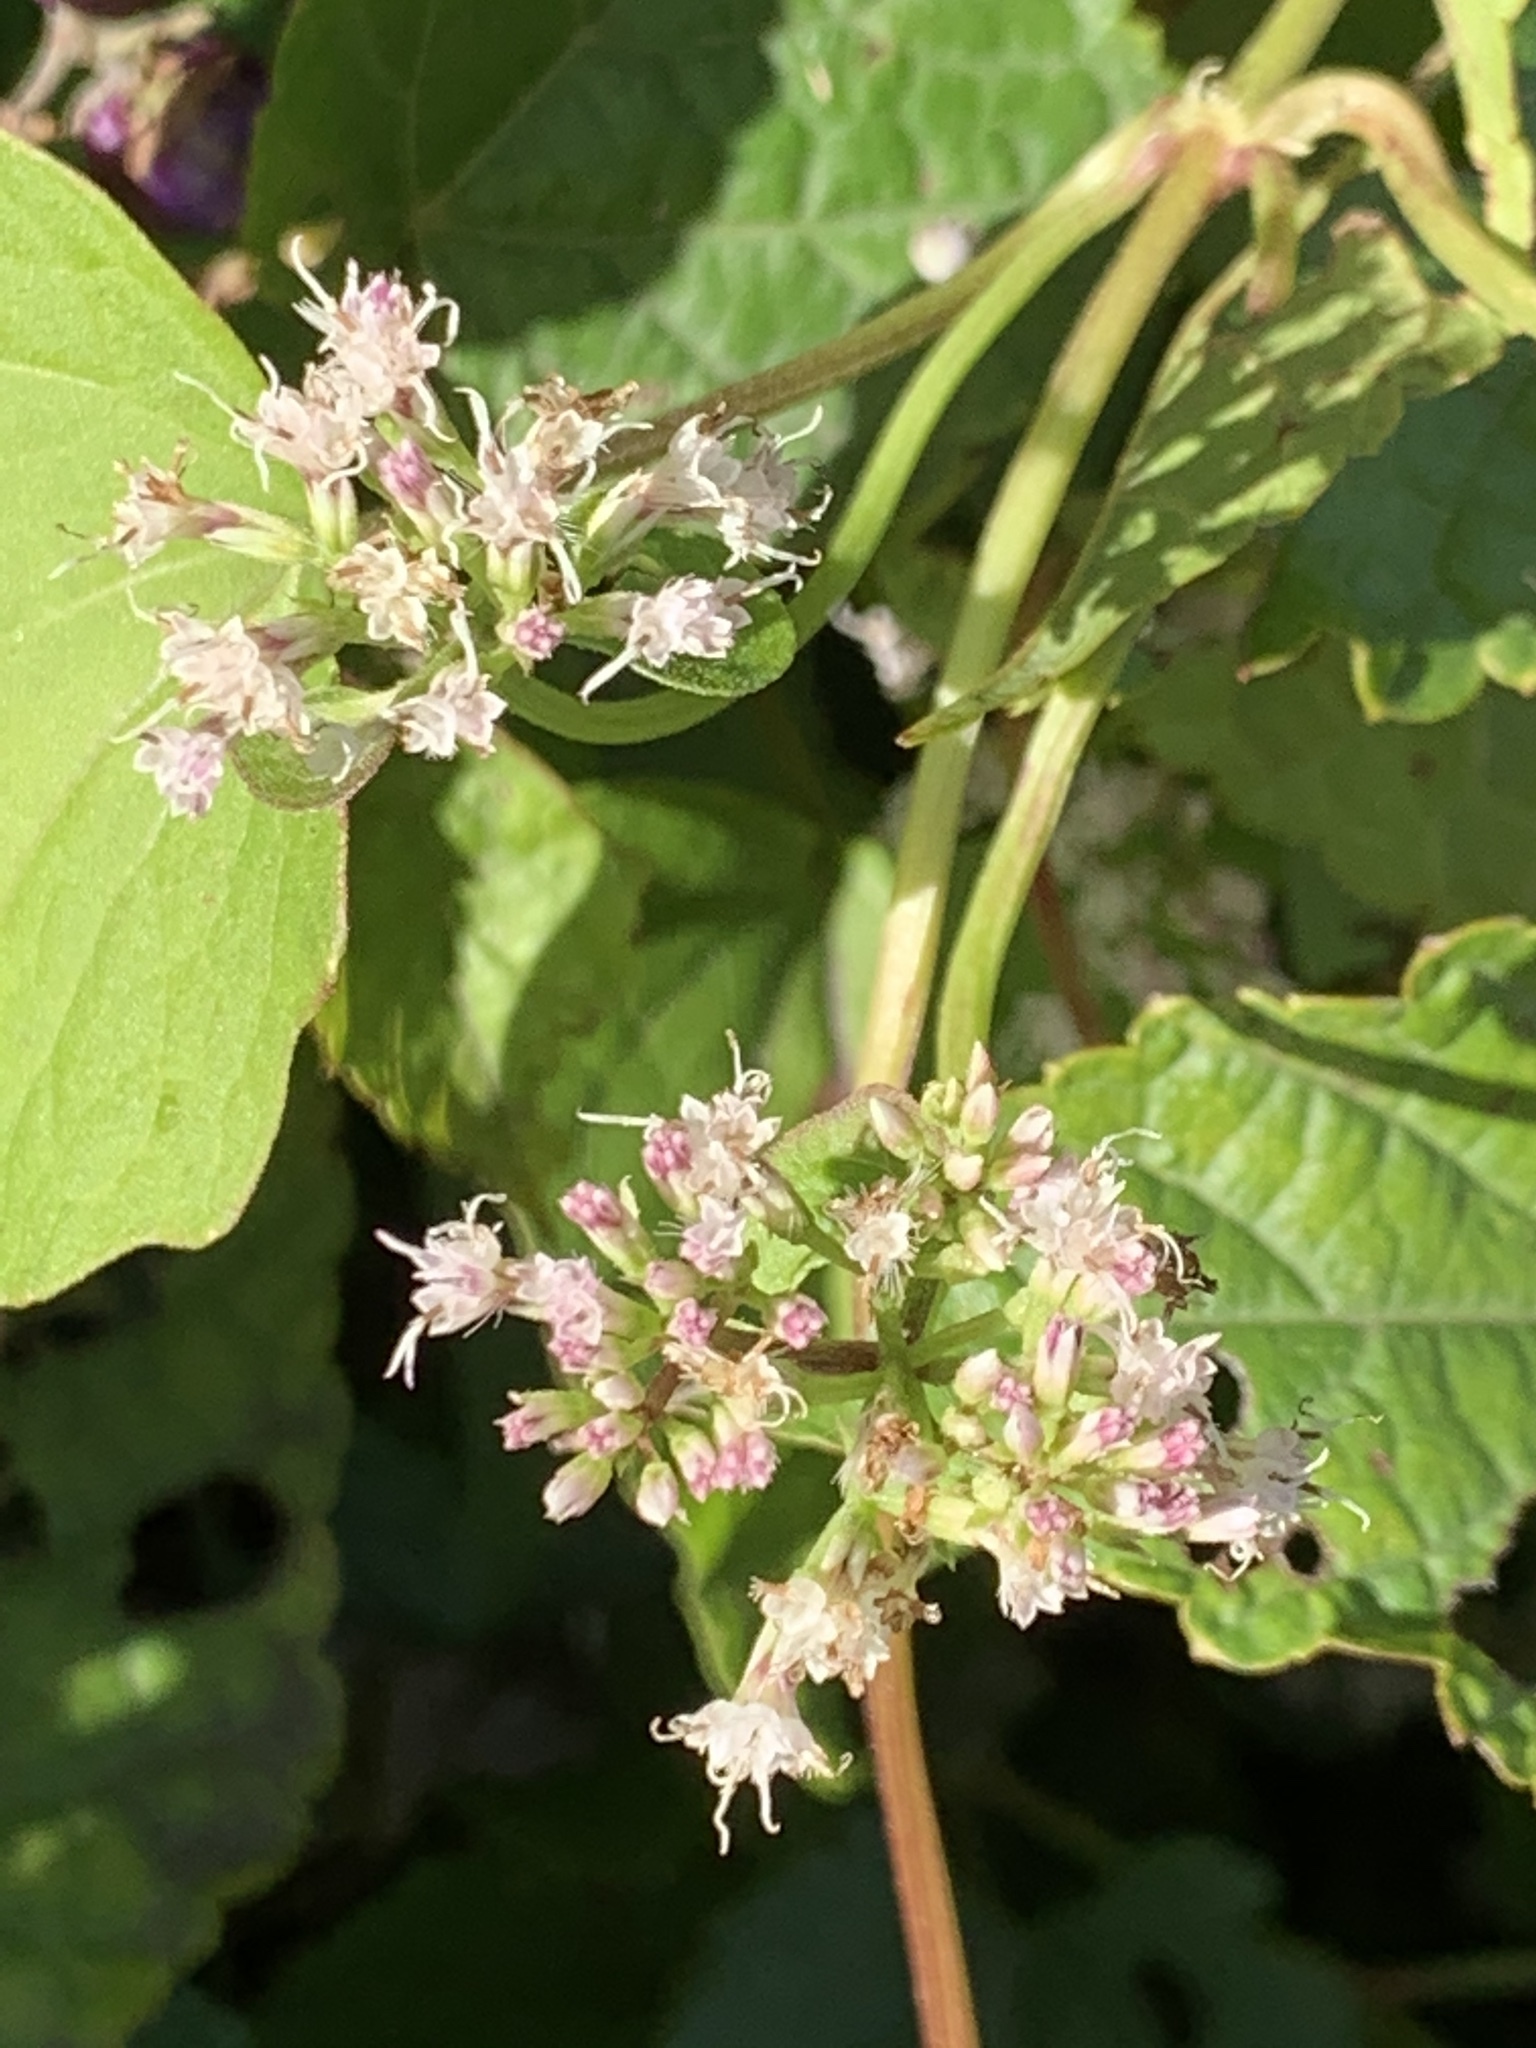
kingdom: Plantae
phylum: Tracheophyta
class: Magnoliopsida
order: Asterales
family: Asteraceae
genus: Mikania
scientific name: Mikania scandens
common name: Climbing hempvine
